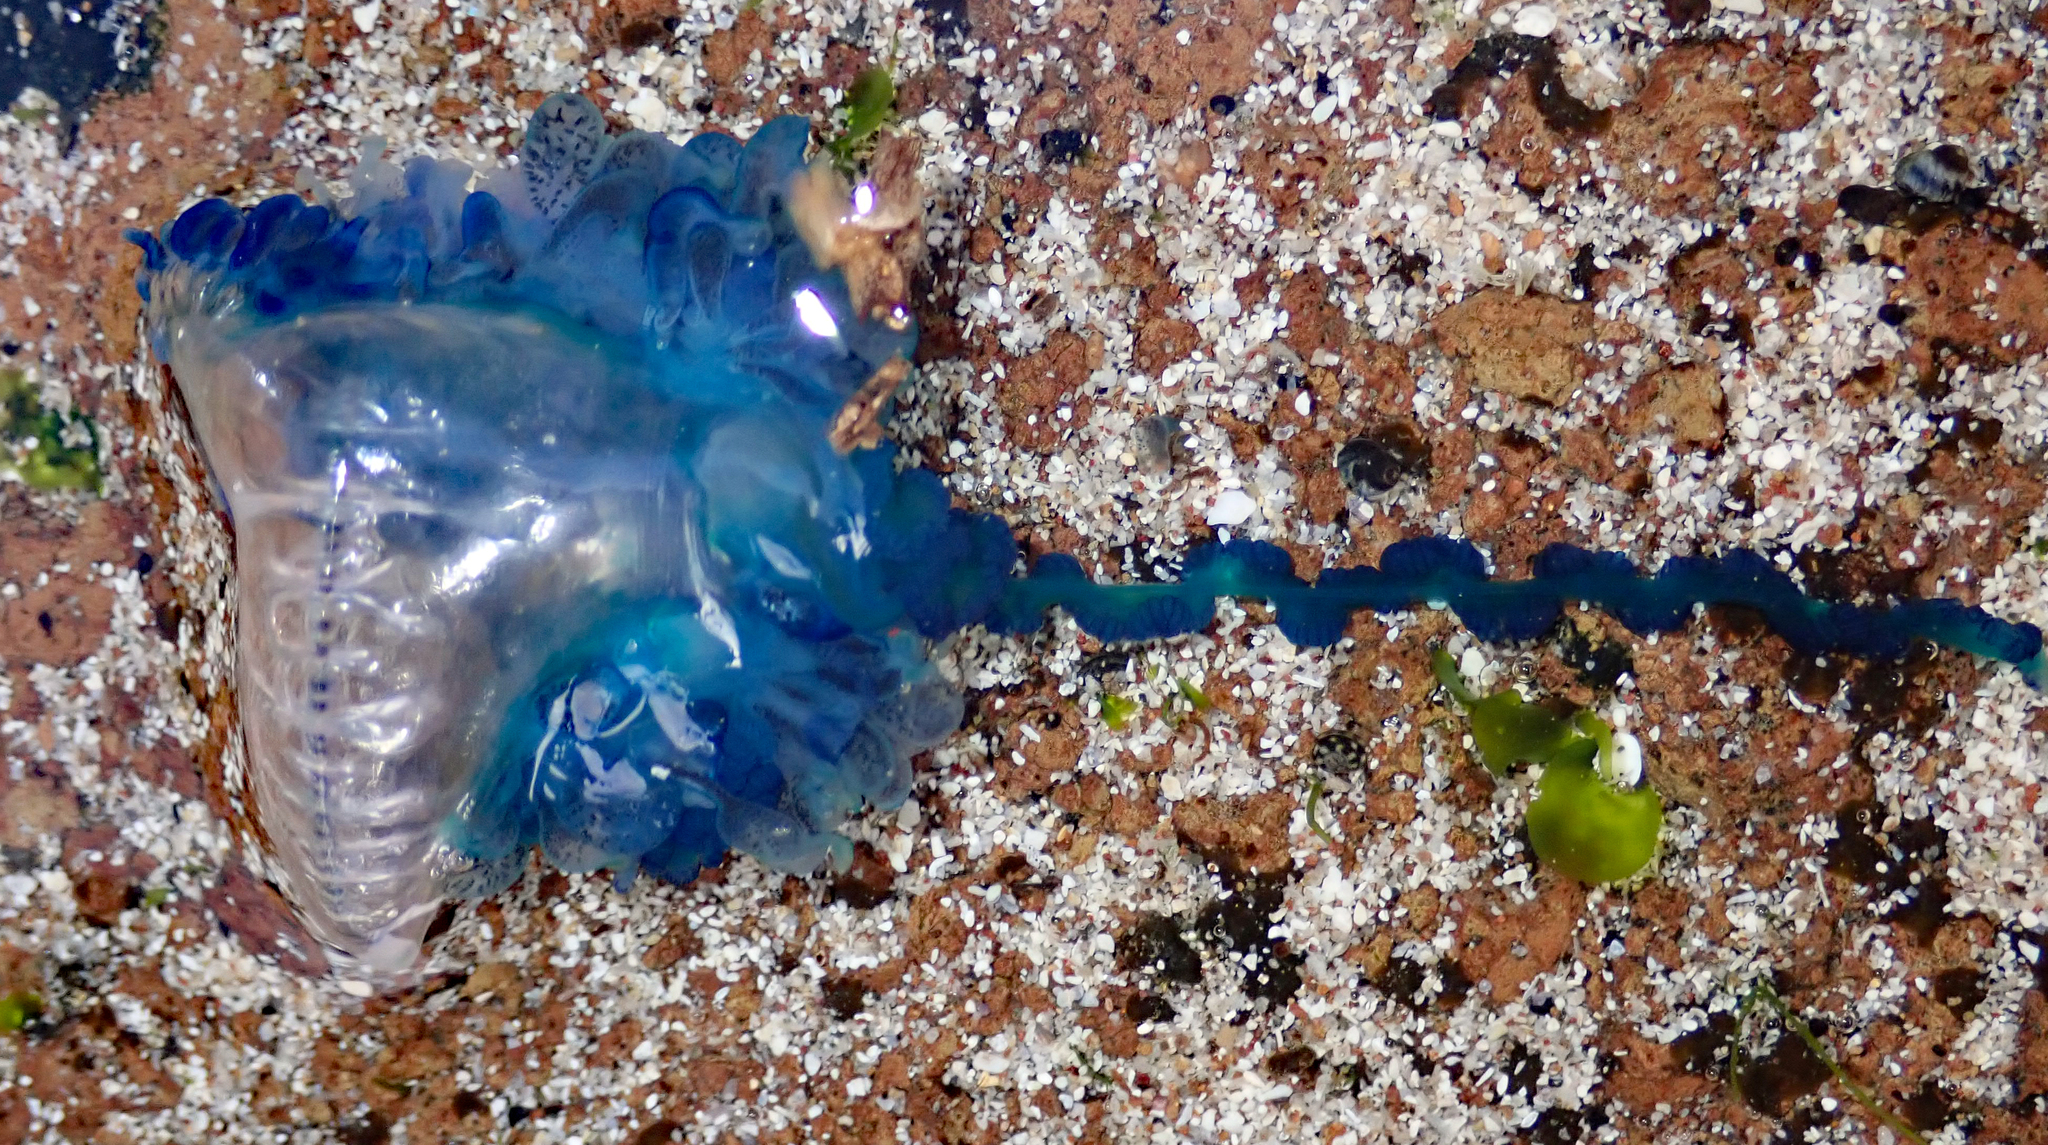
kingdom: Animalia
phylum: Cnidaria
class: Hydrozoa
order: Siphonophorae
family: Physaliidae
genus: Physalia
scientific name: Physalia physalis
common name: Portuguese man-of-war
